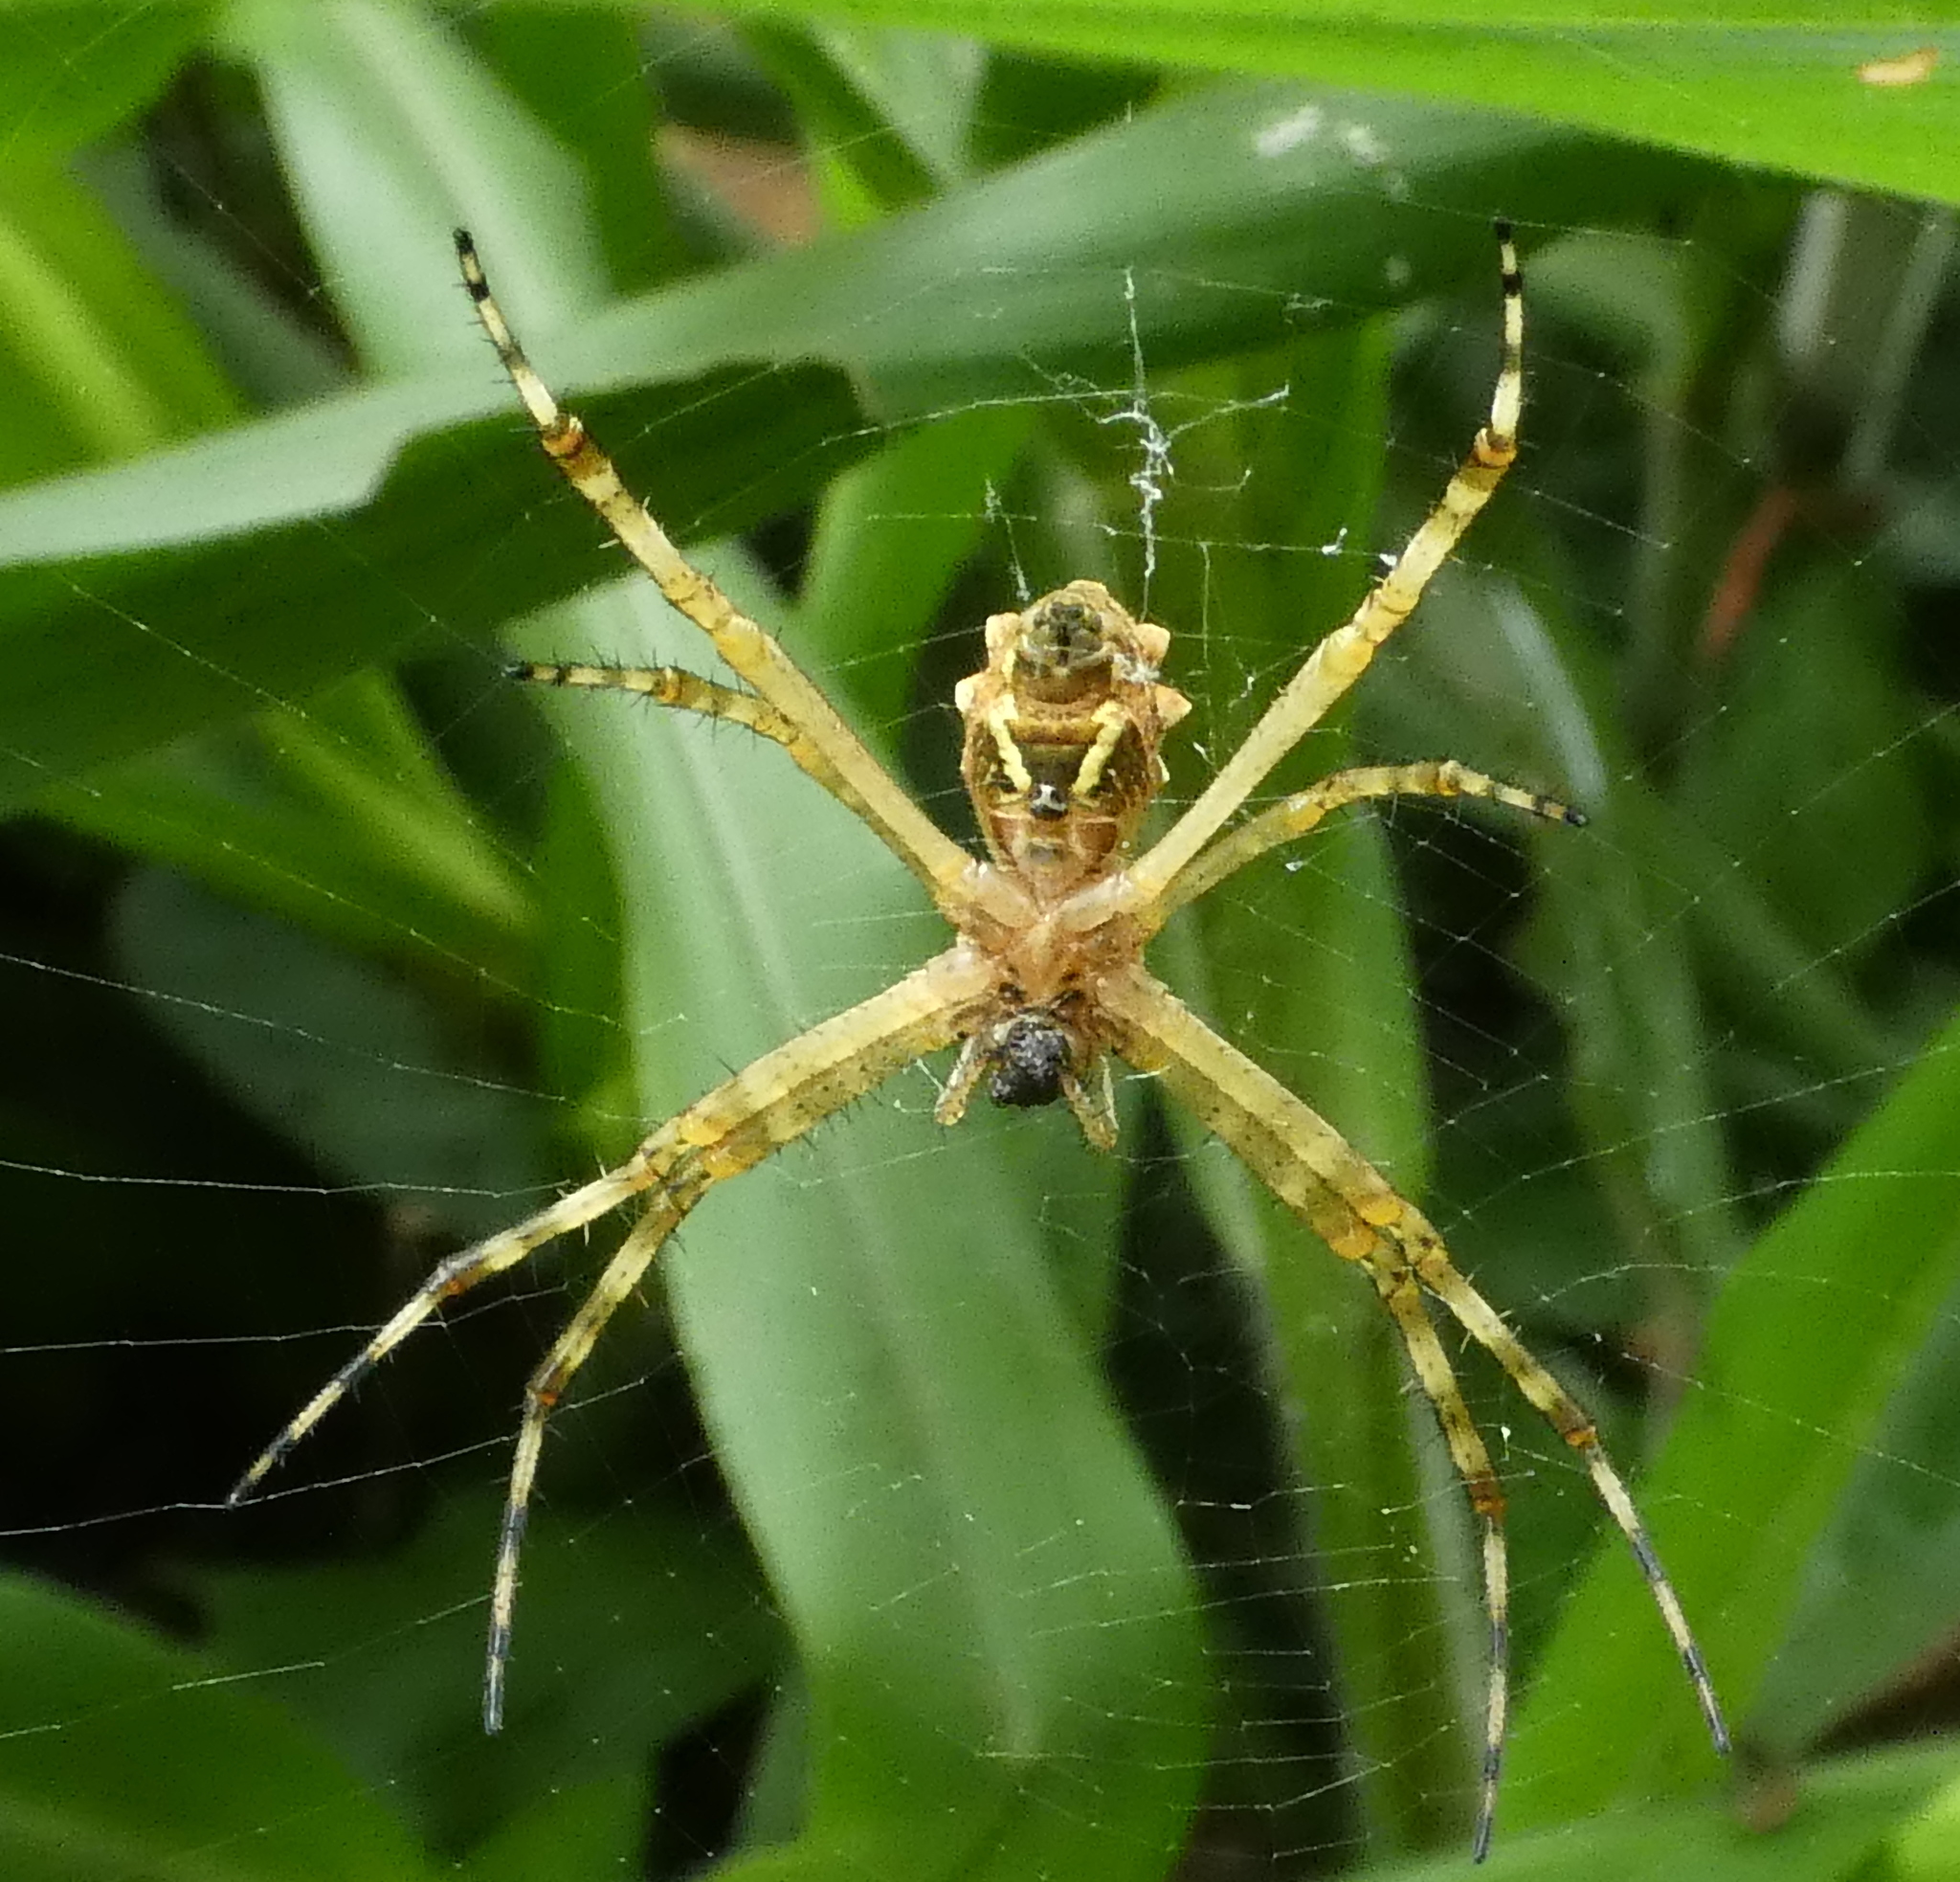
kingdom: Animalia
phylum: Arthropoda
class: Arachnida
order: Araneae
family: Araneidae
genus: Argiope
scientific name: Argiope argentata
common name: Orb weavers
